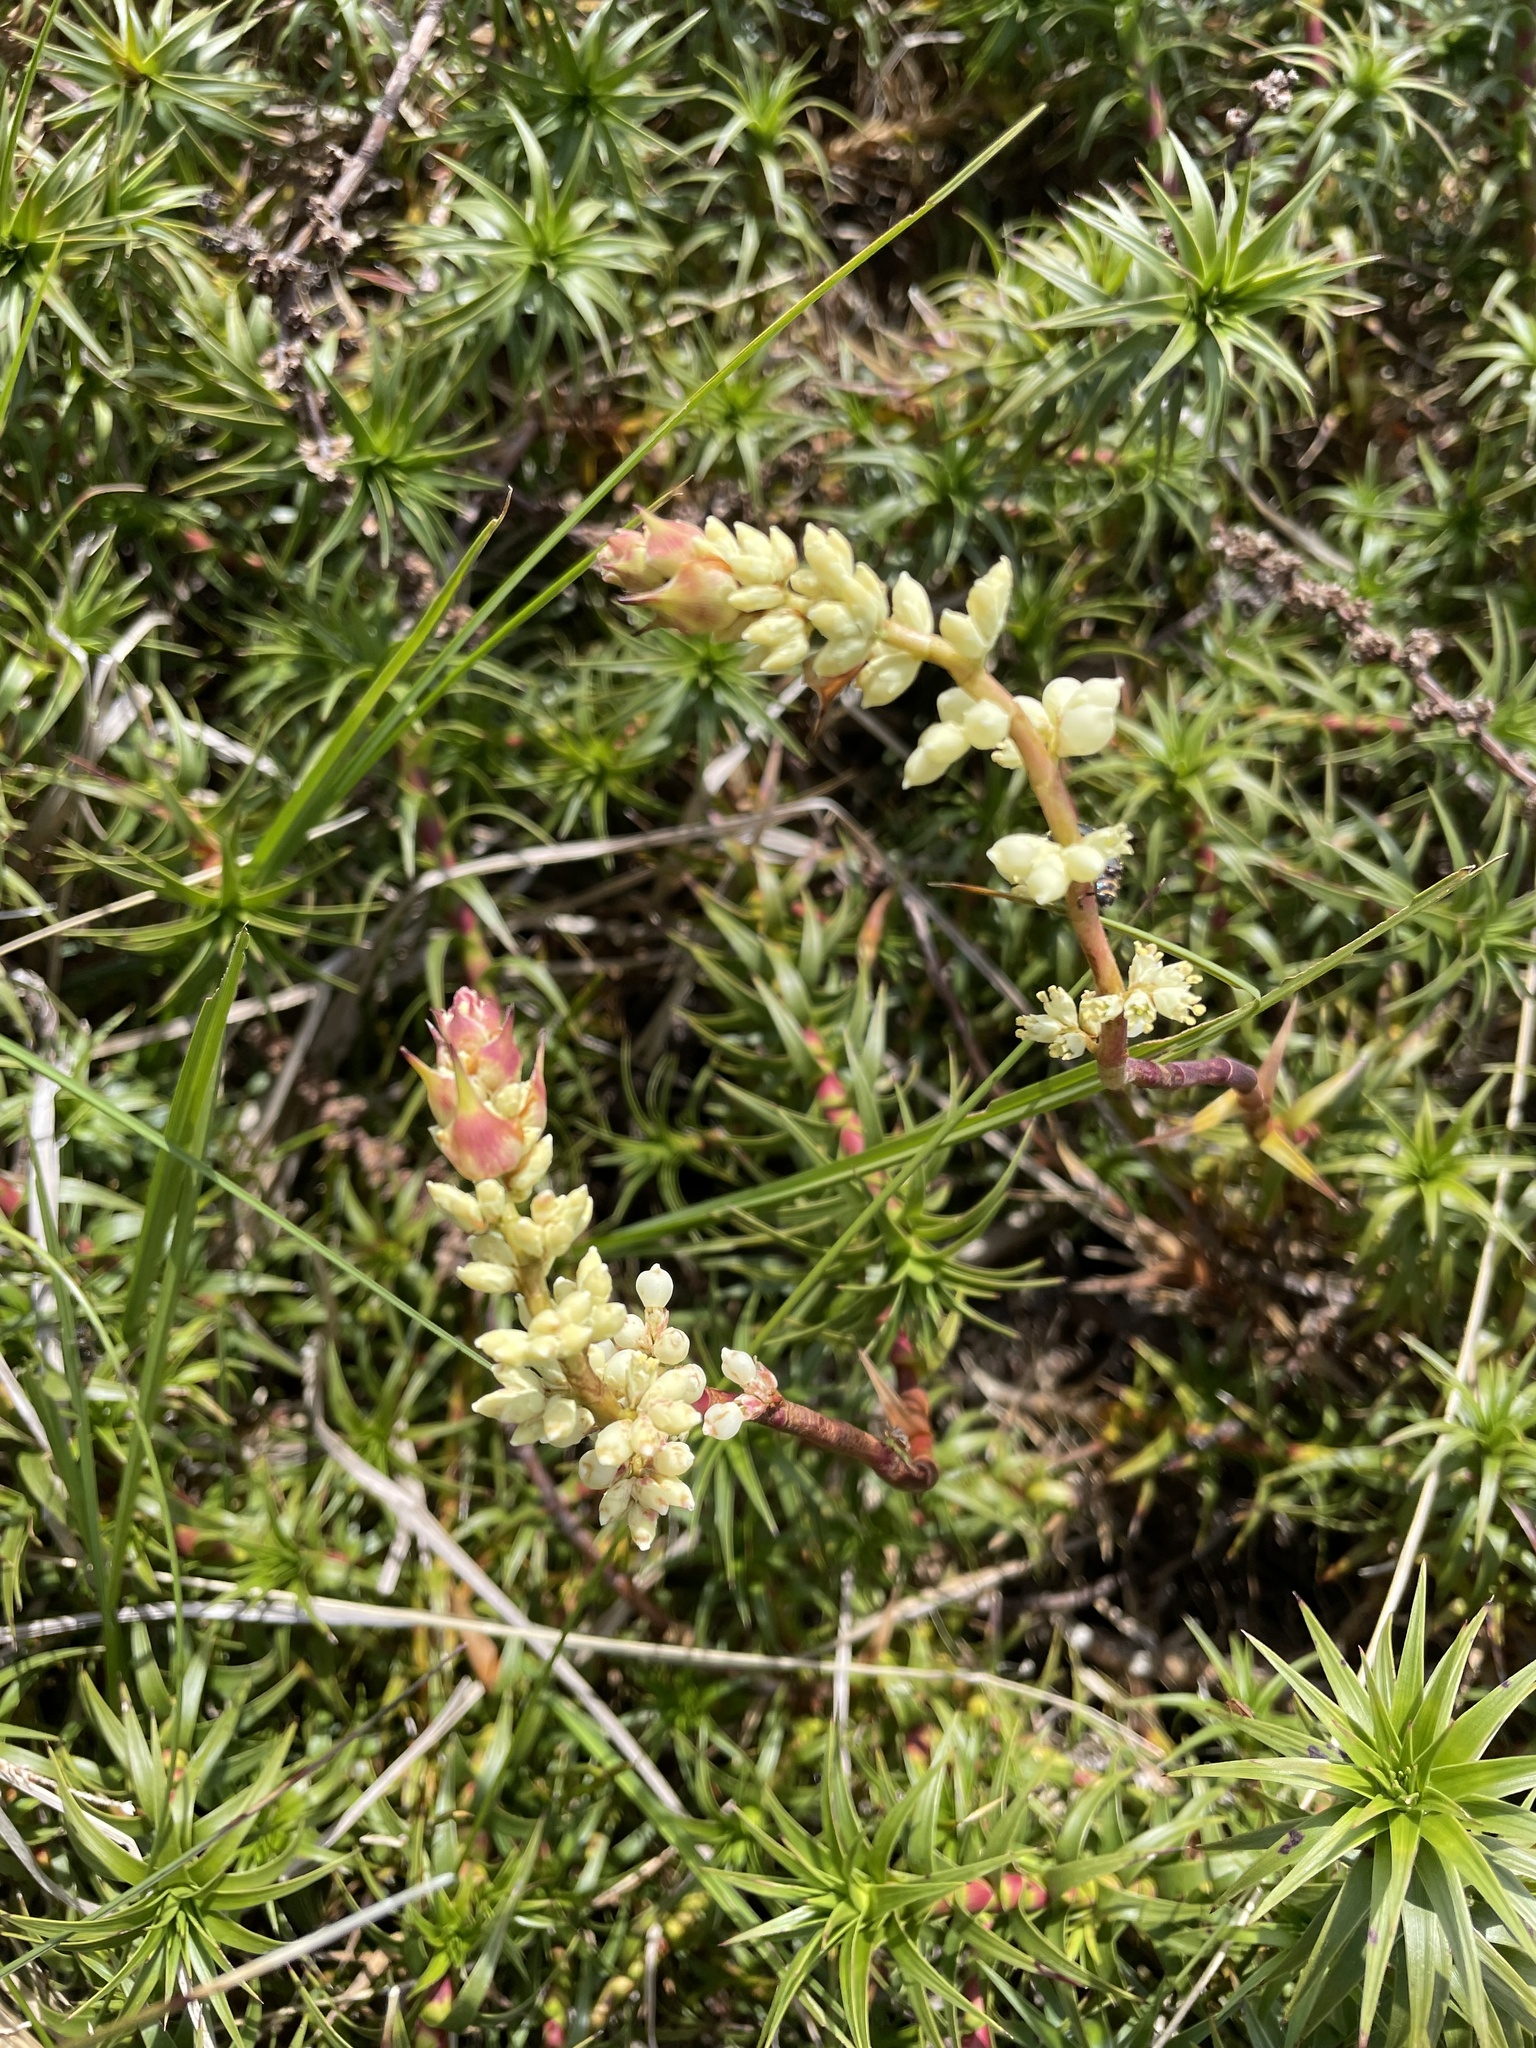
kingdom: Plantae
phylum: Tracheophyta
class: Magnoliopsida
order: Ericales
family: Ericaceae
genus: Dracophyllum
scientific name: Dracophyllum continentis
